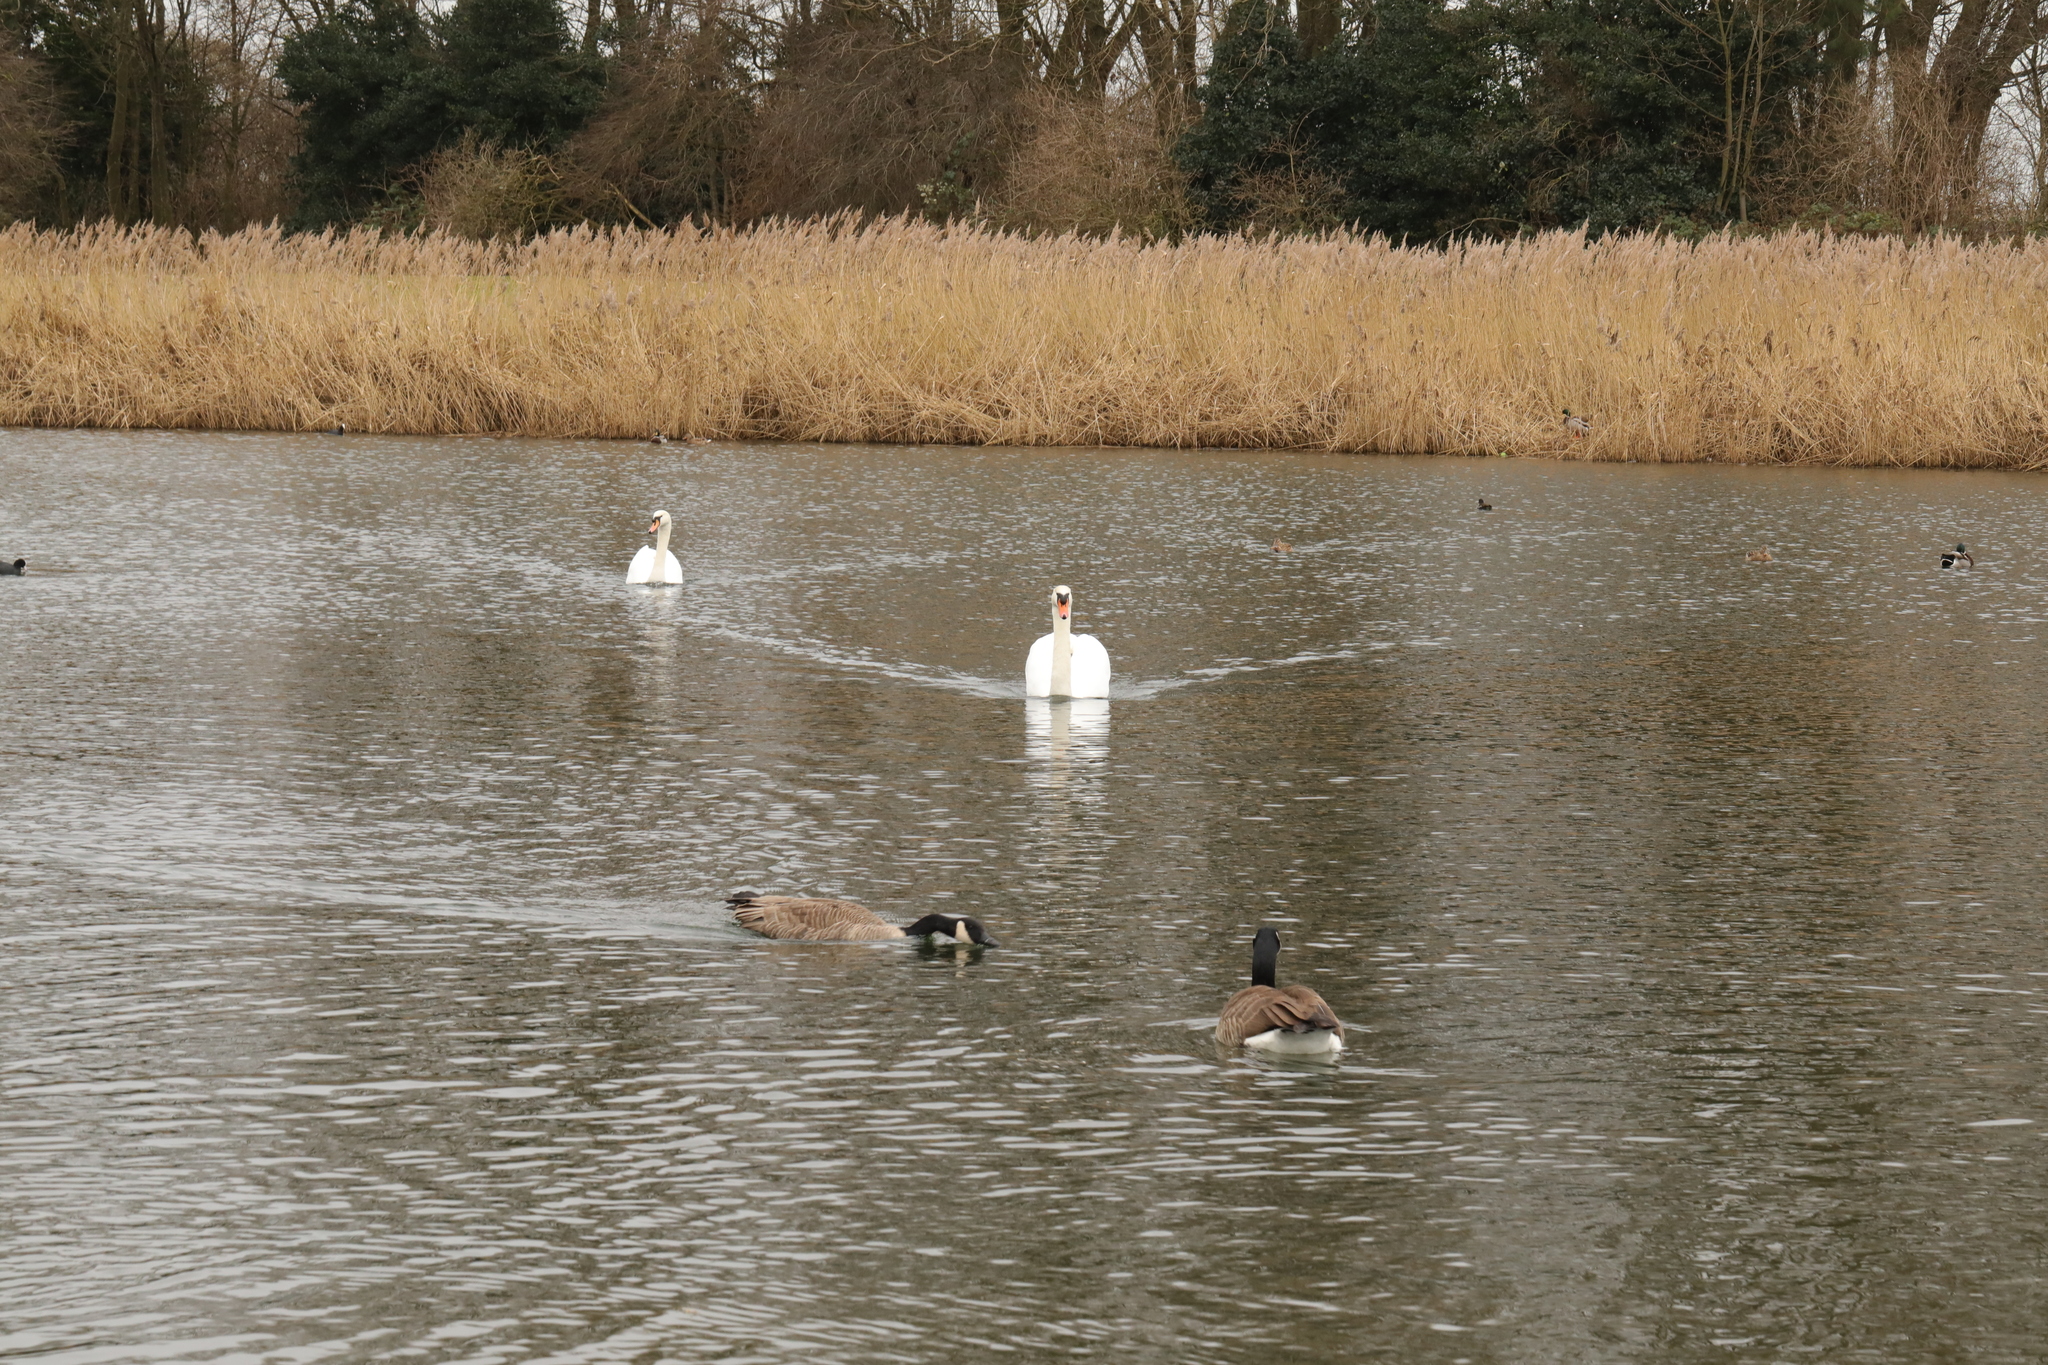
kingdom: Animalia
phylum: Chordata
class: Aves
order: Anseriformes
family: Anatidae
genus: Cygnus
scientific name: Cygnus olor
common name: Mute swan
